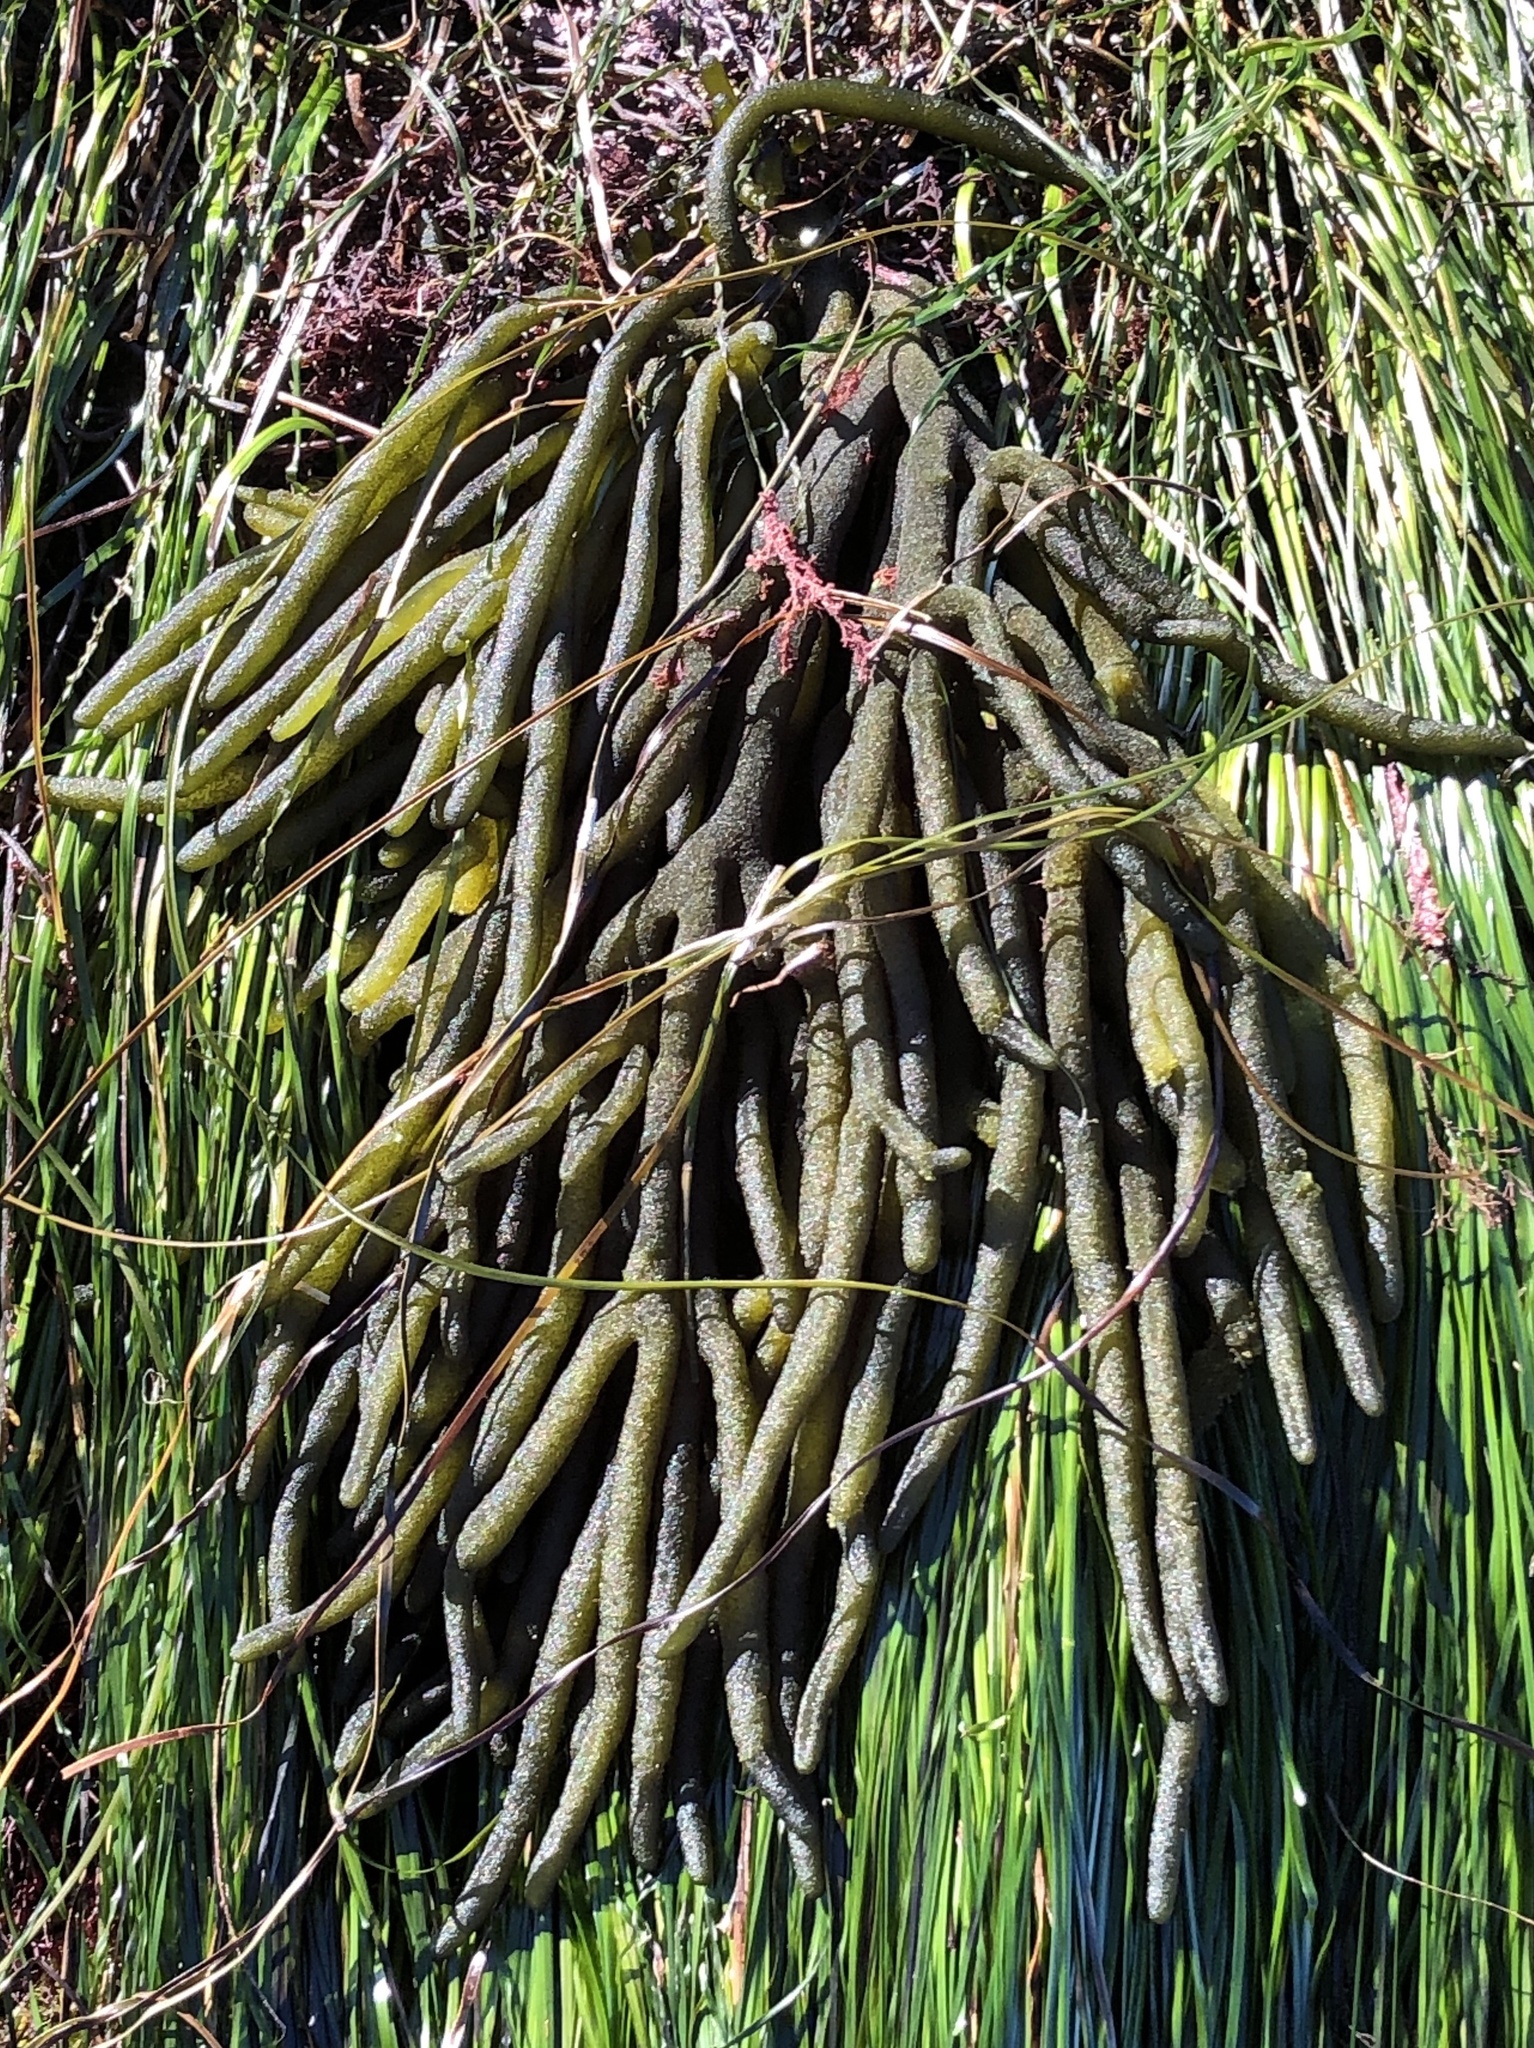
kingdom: Plantae
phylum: Chlorophyta
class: Ulvophyceae
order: Bryopsidales
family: Codiaceae
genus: Codium
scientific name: Codium fragile
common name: Dead man's fingers
